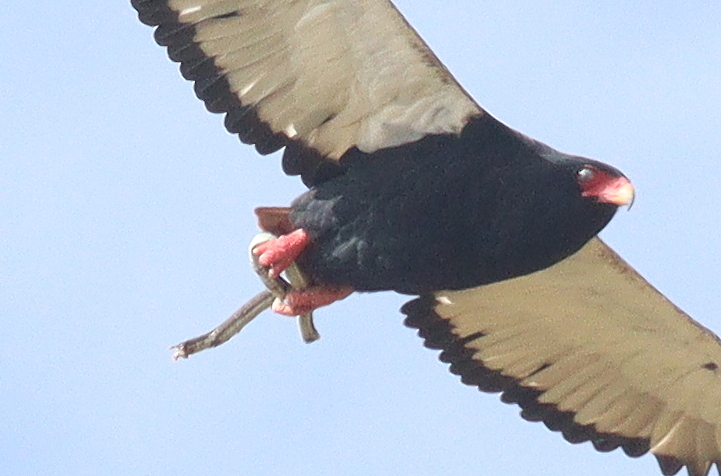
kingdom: Animalia
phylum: Chordata
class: Aves
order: Accipitriformes
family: Accipitridae
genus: Terathopius
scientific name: Terathopius ecaudatus
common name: Bateleur
